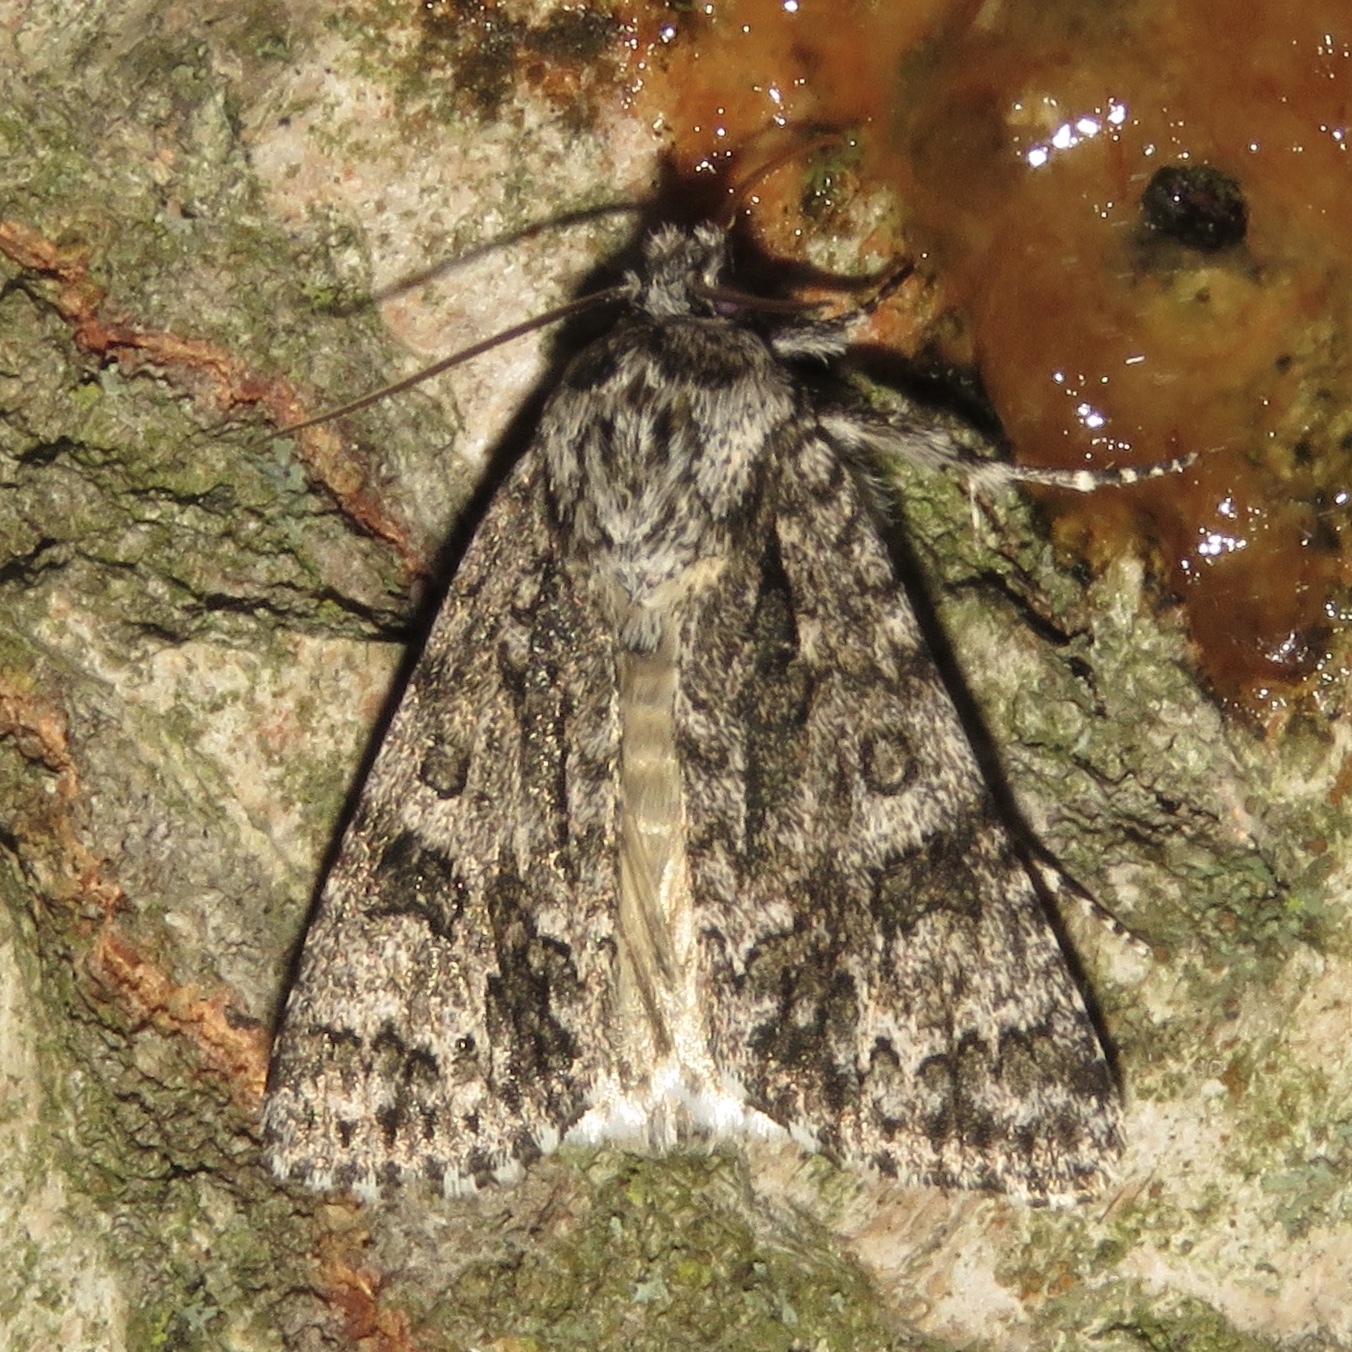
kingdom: Animalia
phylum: Arthropoda
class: Insecta
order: Lepidoptera
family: Noctuidae
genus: Acronicta
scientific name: Acronicta impressa
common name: Impressed dagger
